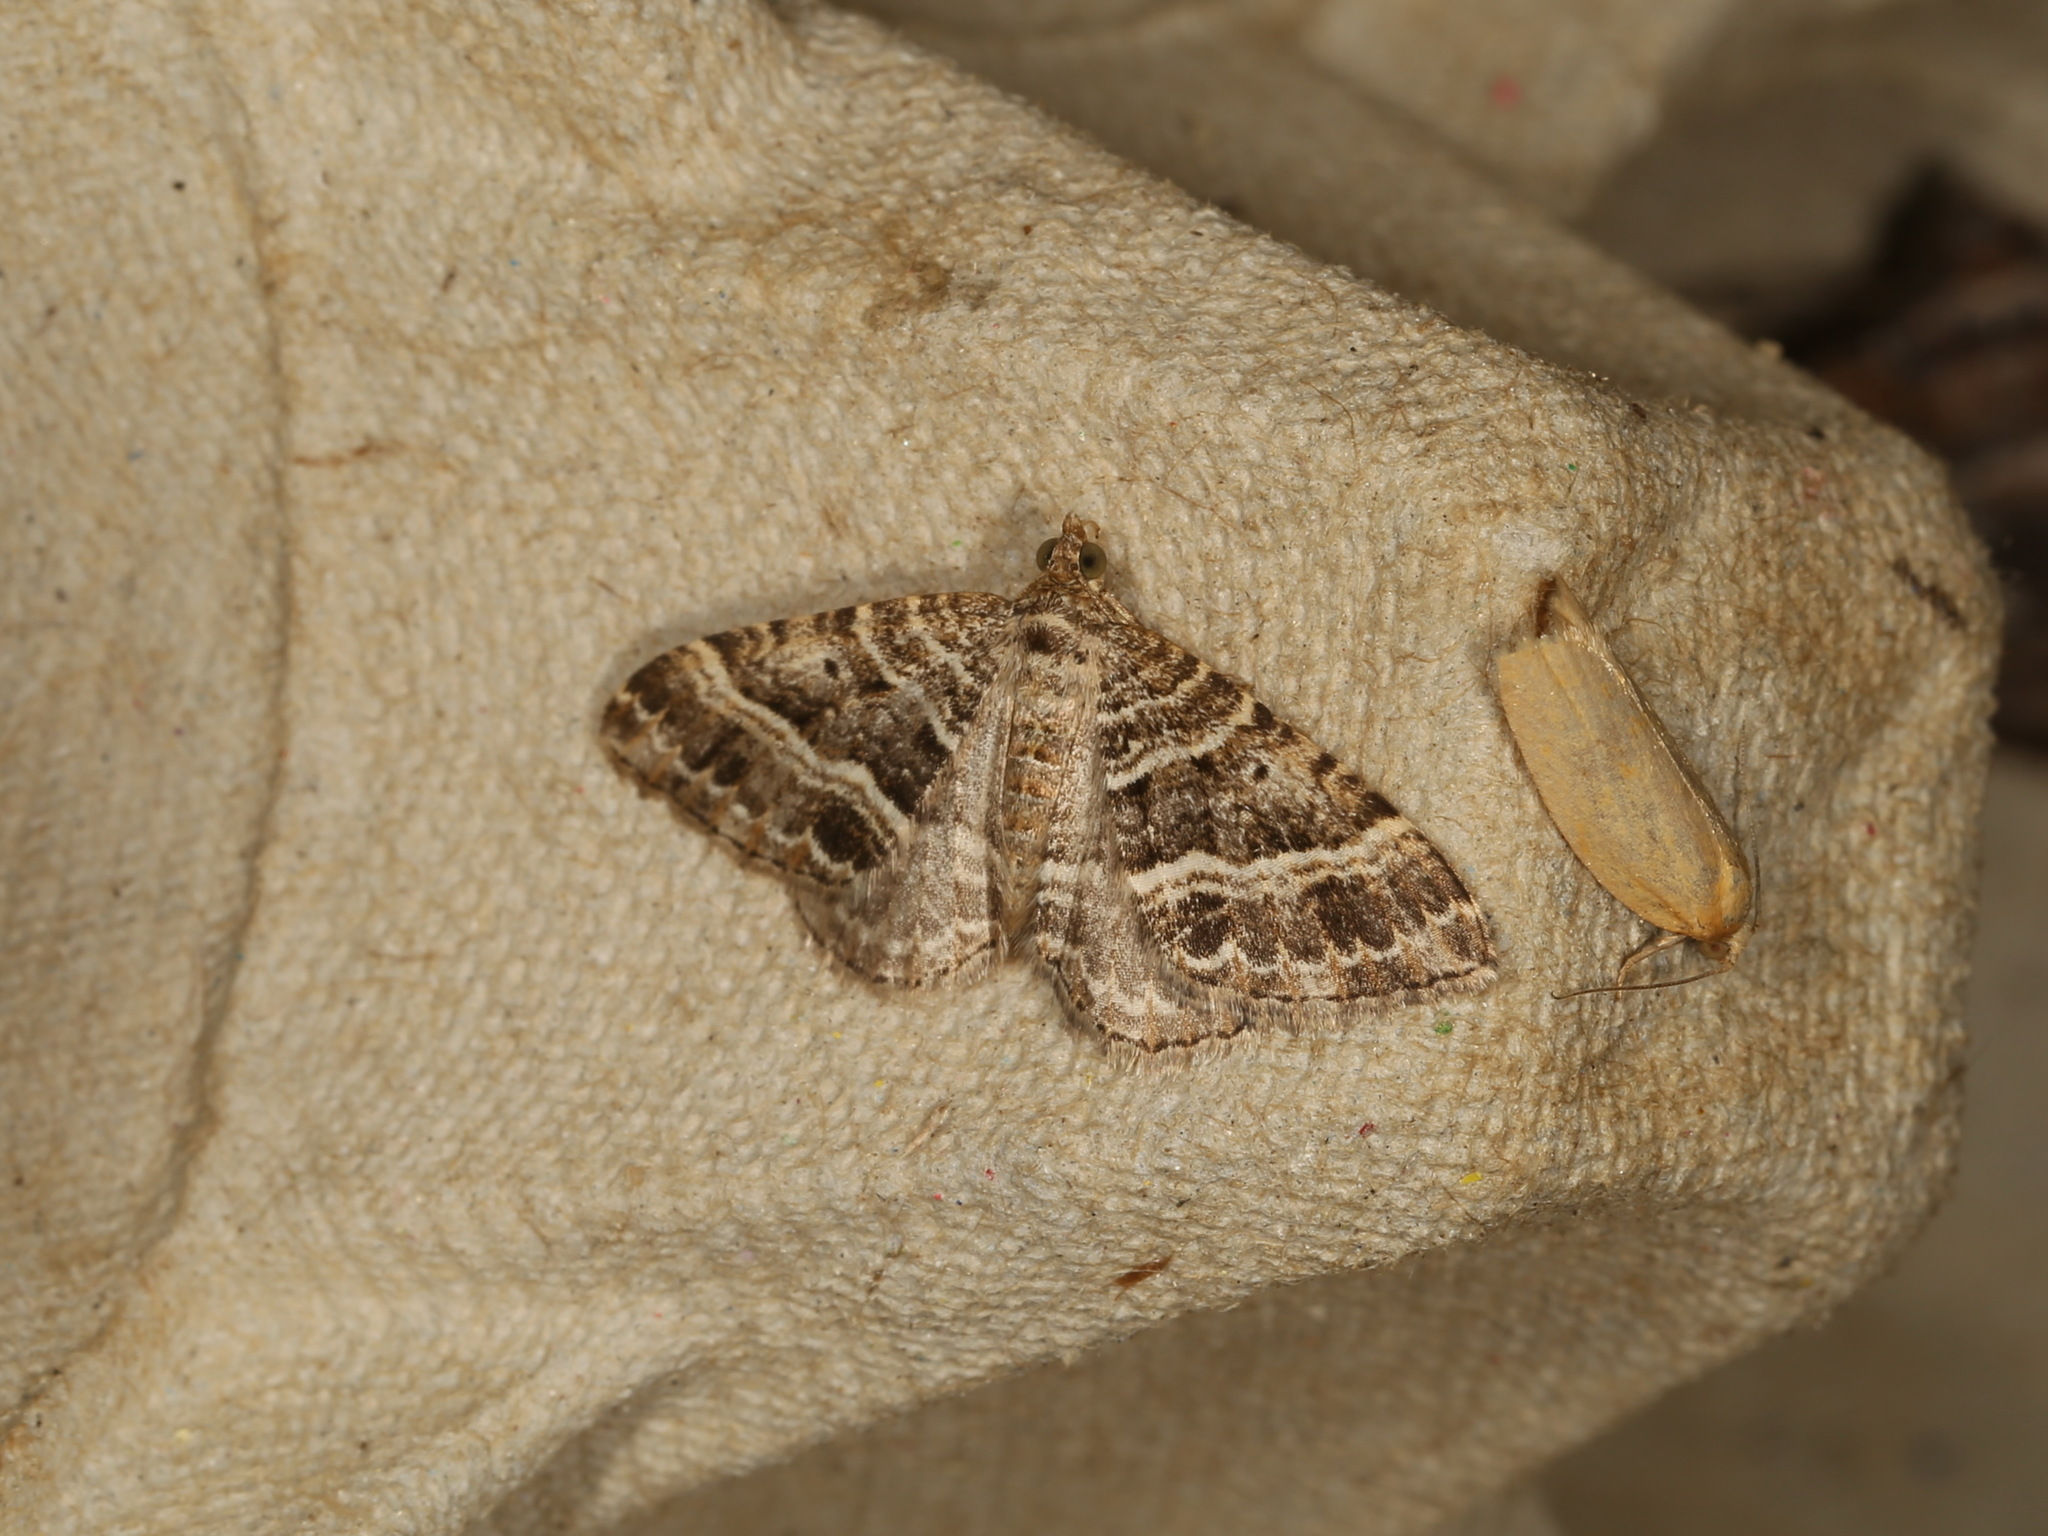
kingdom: Animalia
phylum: Arthropoda
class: Insecta
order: Lepidoptera
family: Geometridae
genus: Chrysolarentia
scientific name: Chrysolarentia subrectaria
